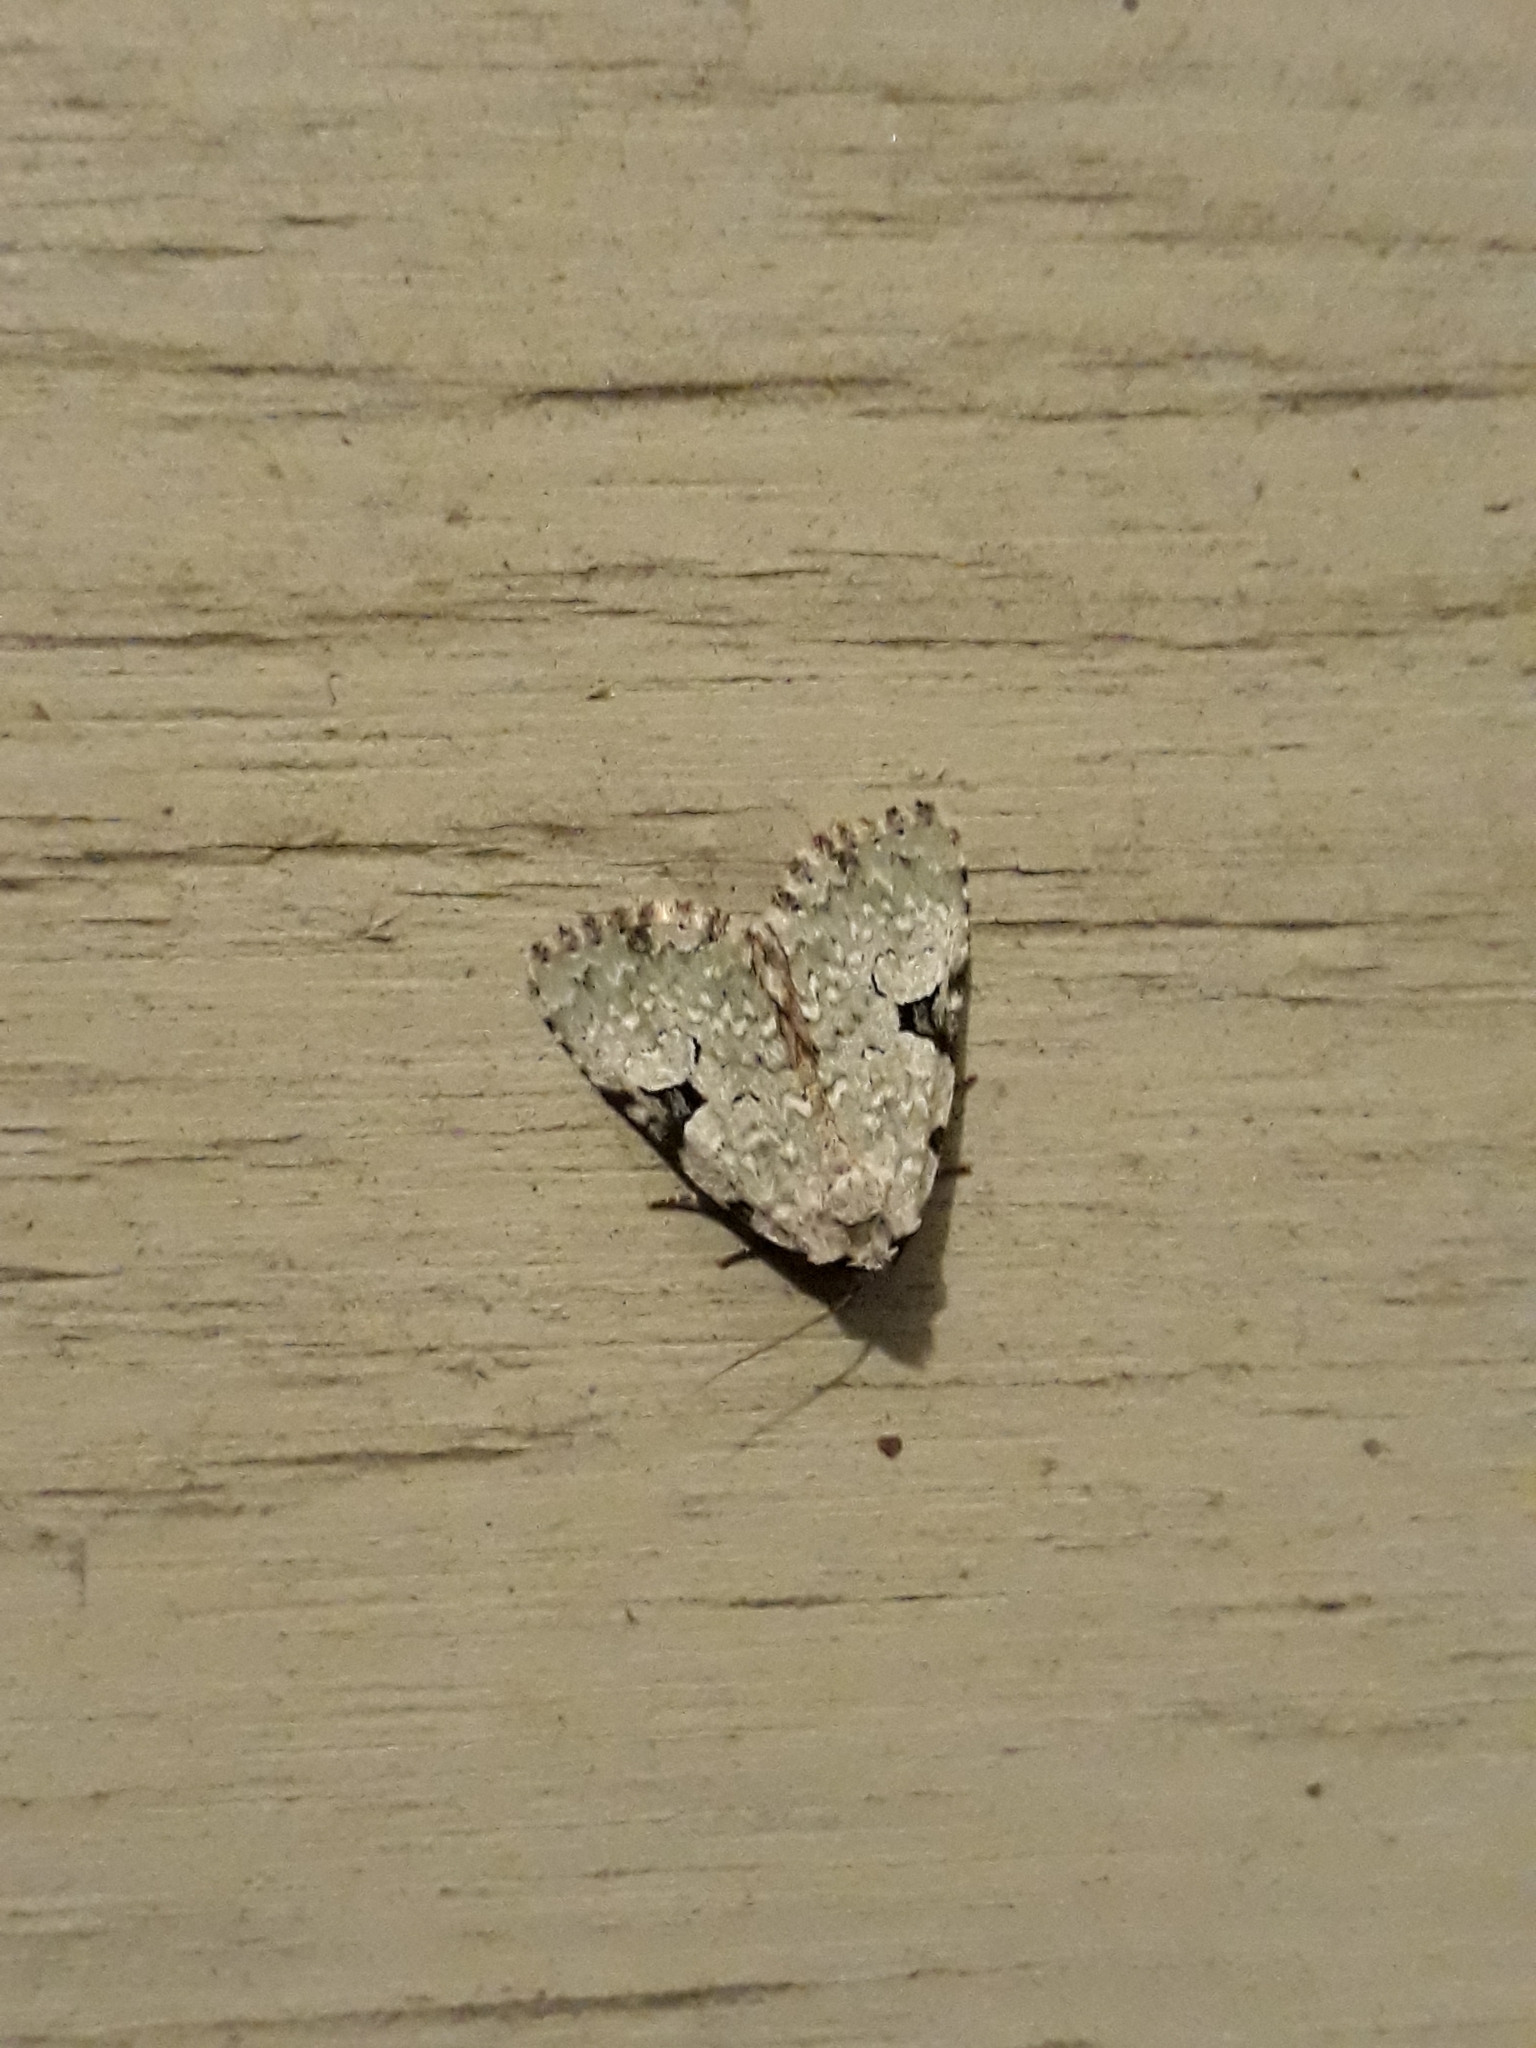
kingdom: Animalia
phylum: Arthropoda
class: Insecta
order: Lepidoptera
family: Noctuidae
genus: Leuconycta
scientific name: Leuconycta diphteroides
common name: Green leuconycta moth
